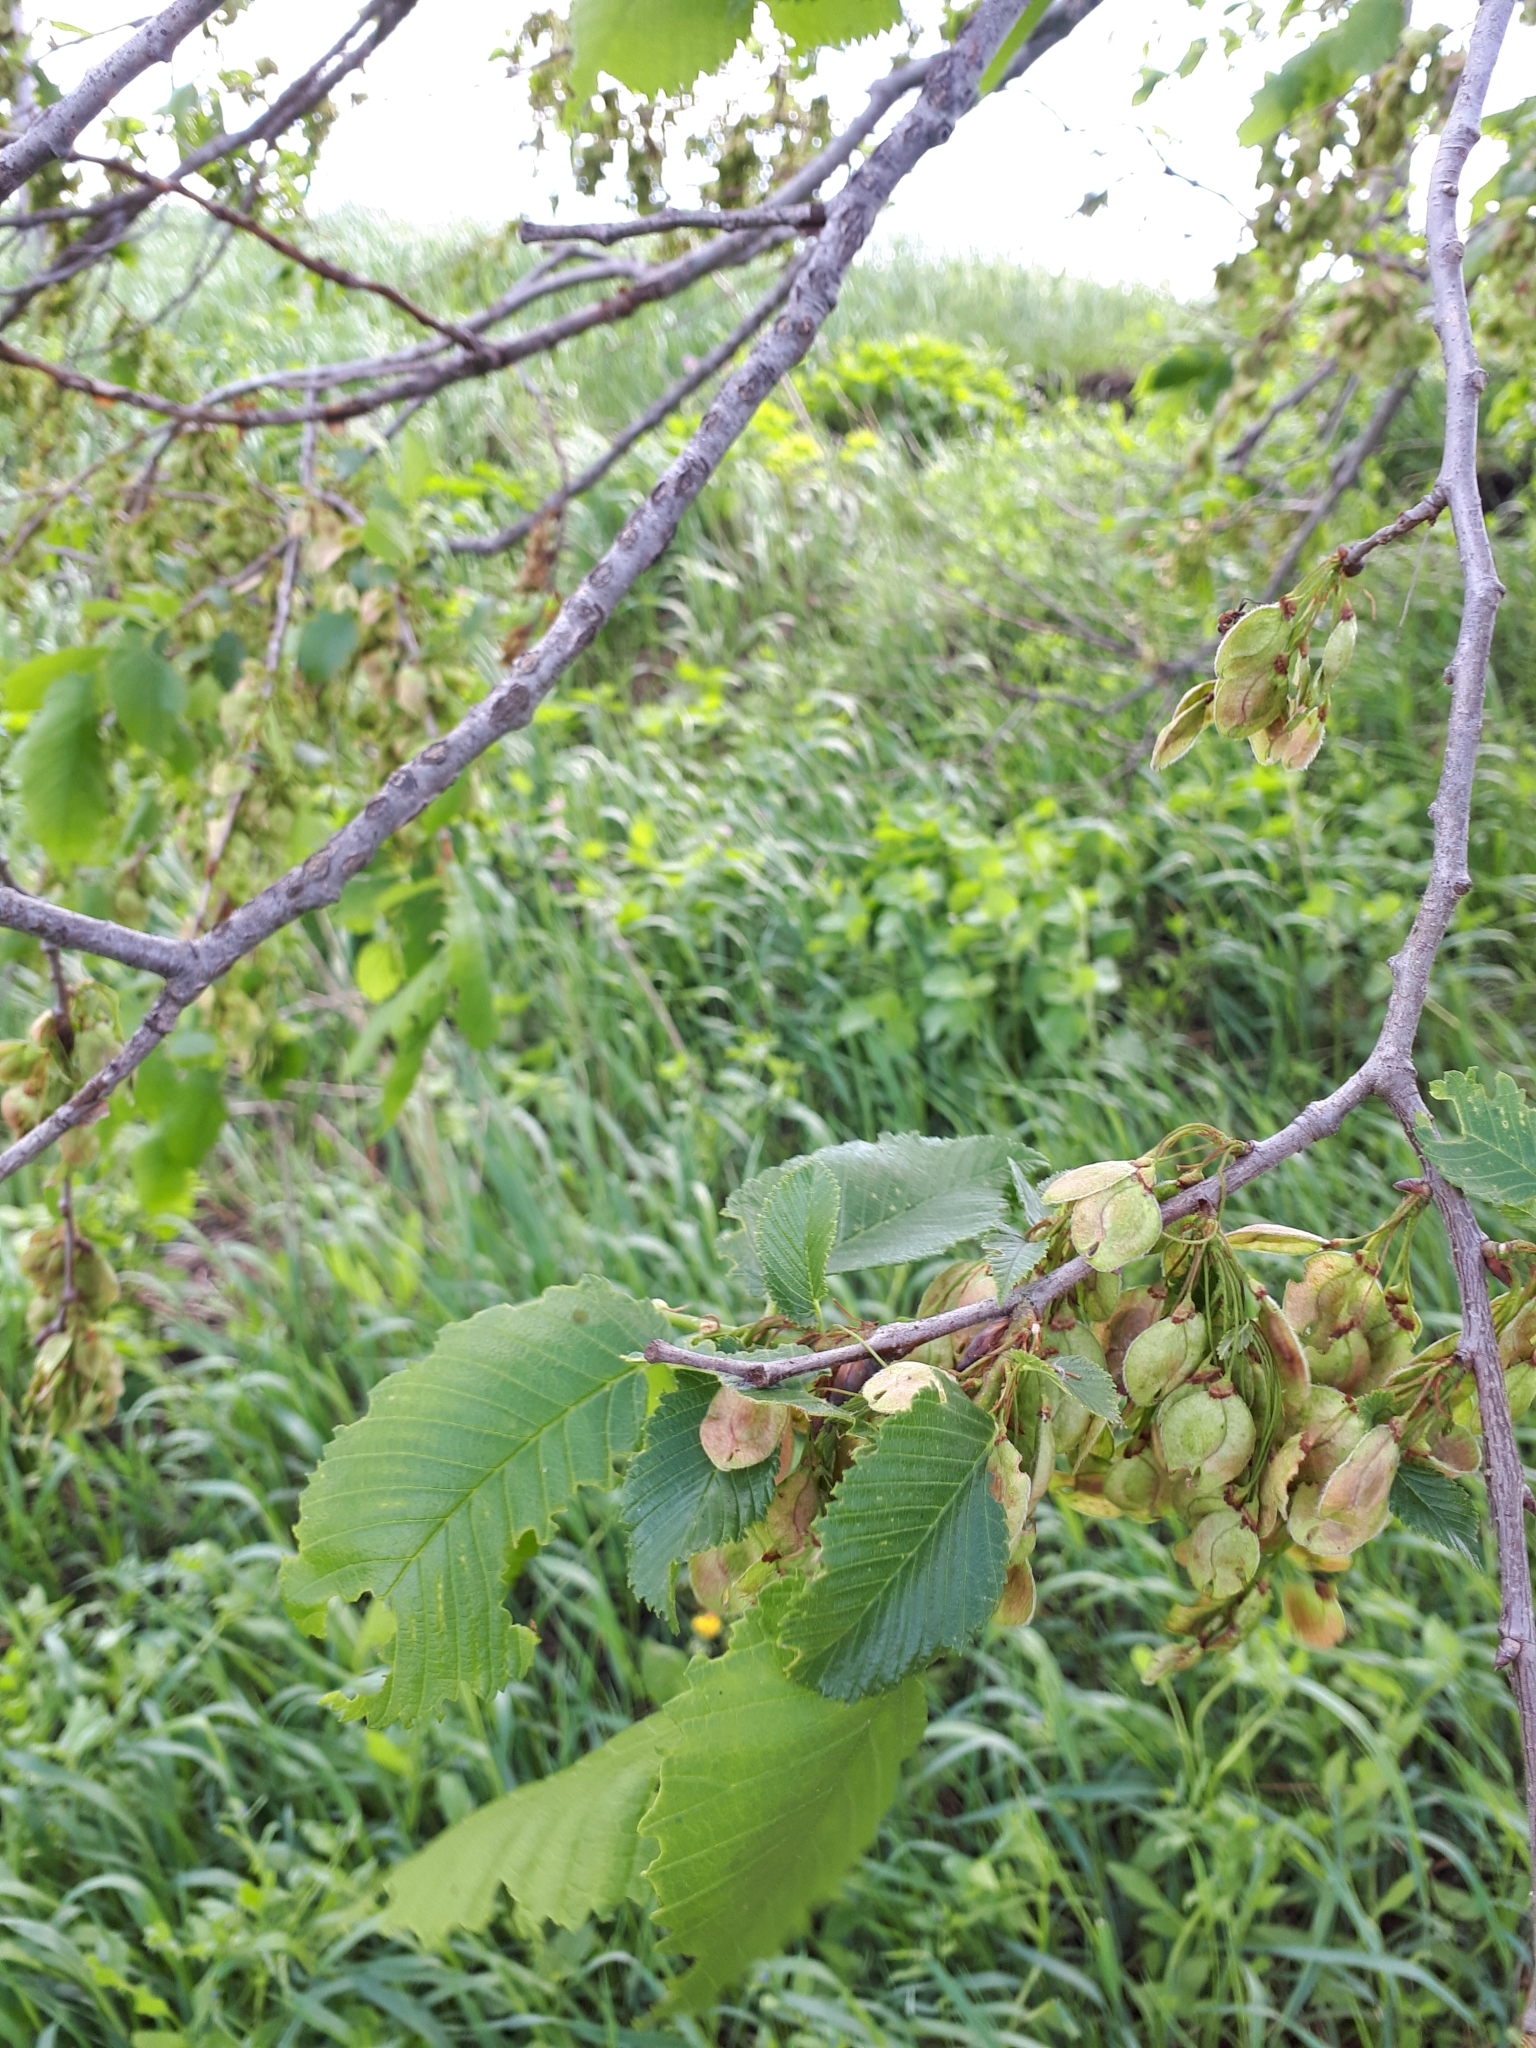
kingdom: Plantae
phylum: Tracheophyta
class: Magnoliopsida
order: Rosales
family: Ulmaceae
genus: Ulmus
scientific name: Ulmus laevis
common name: European white-elm
